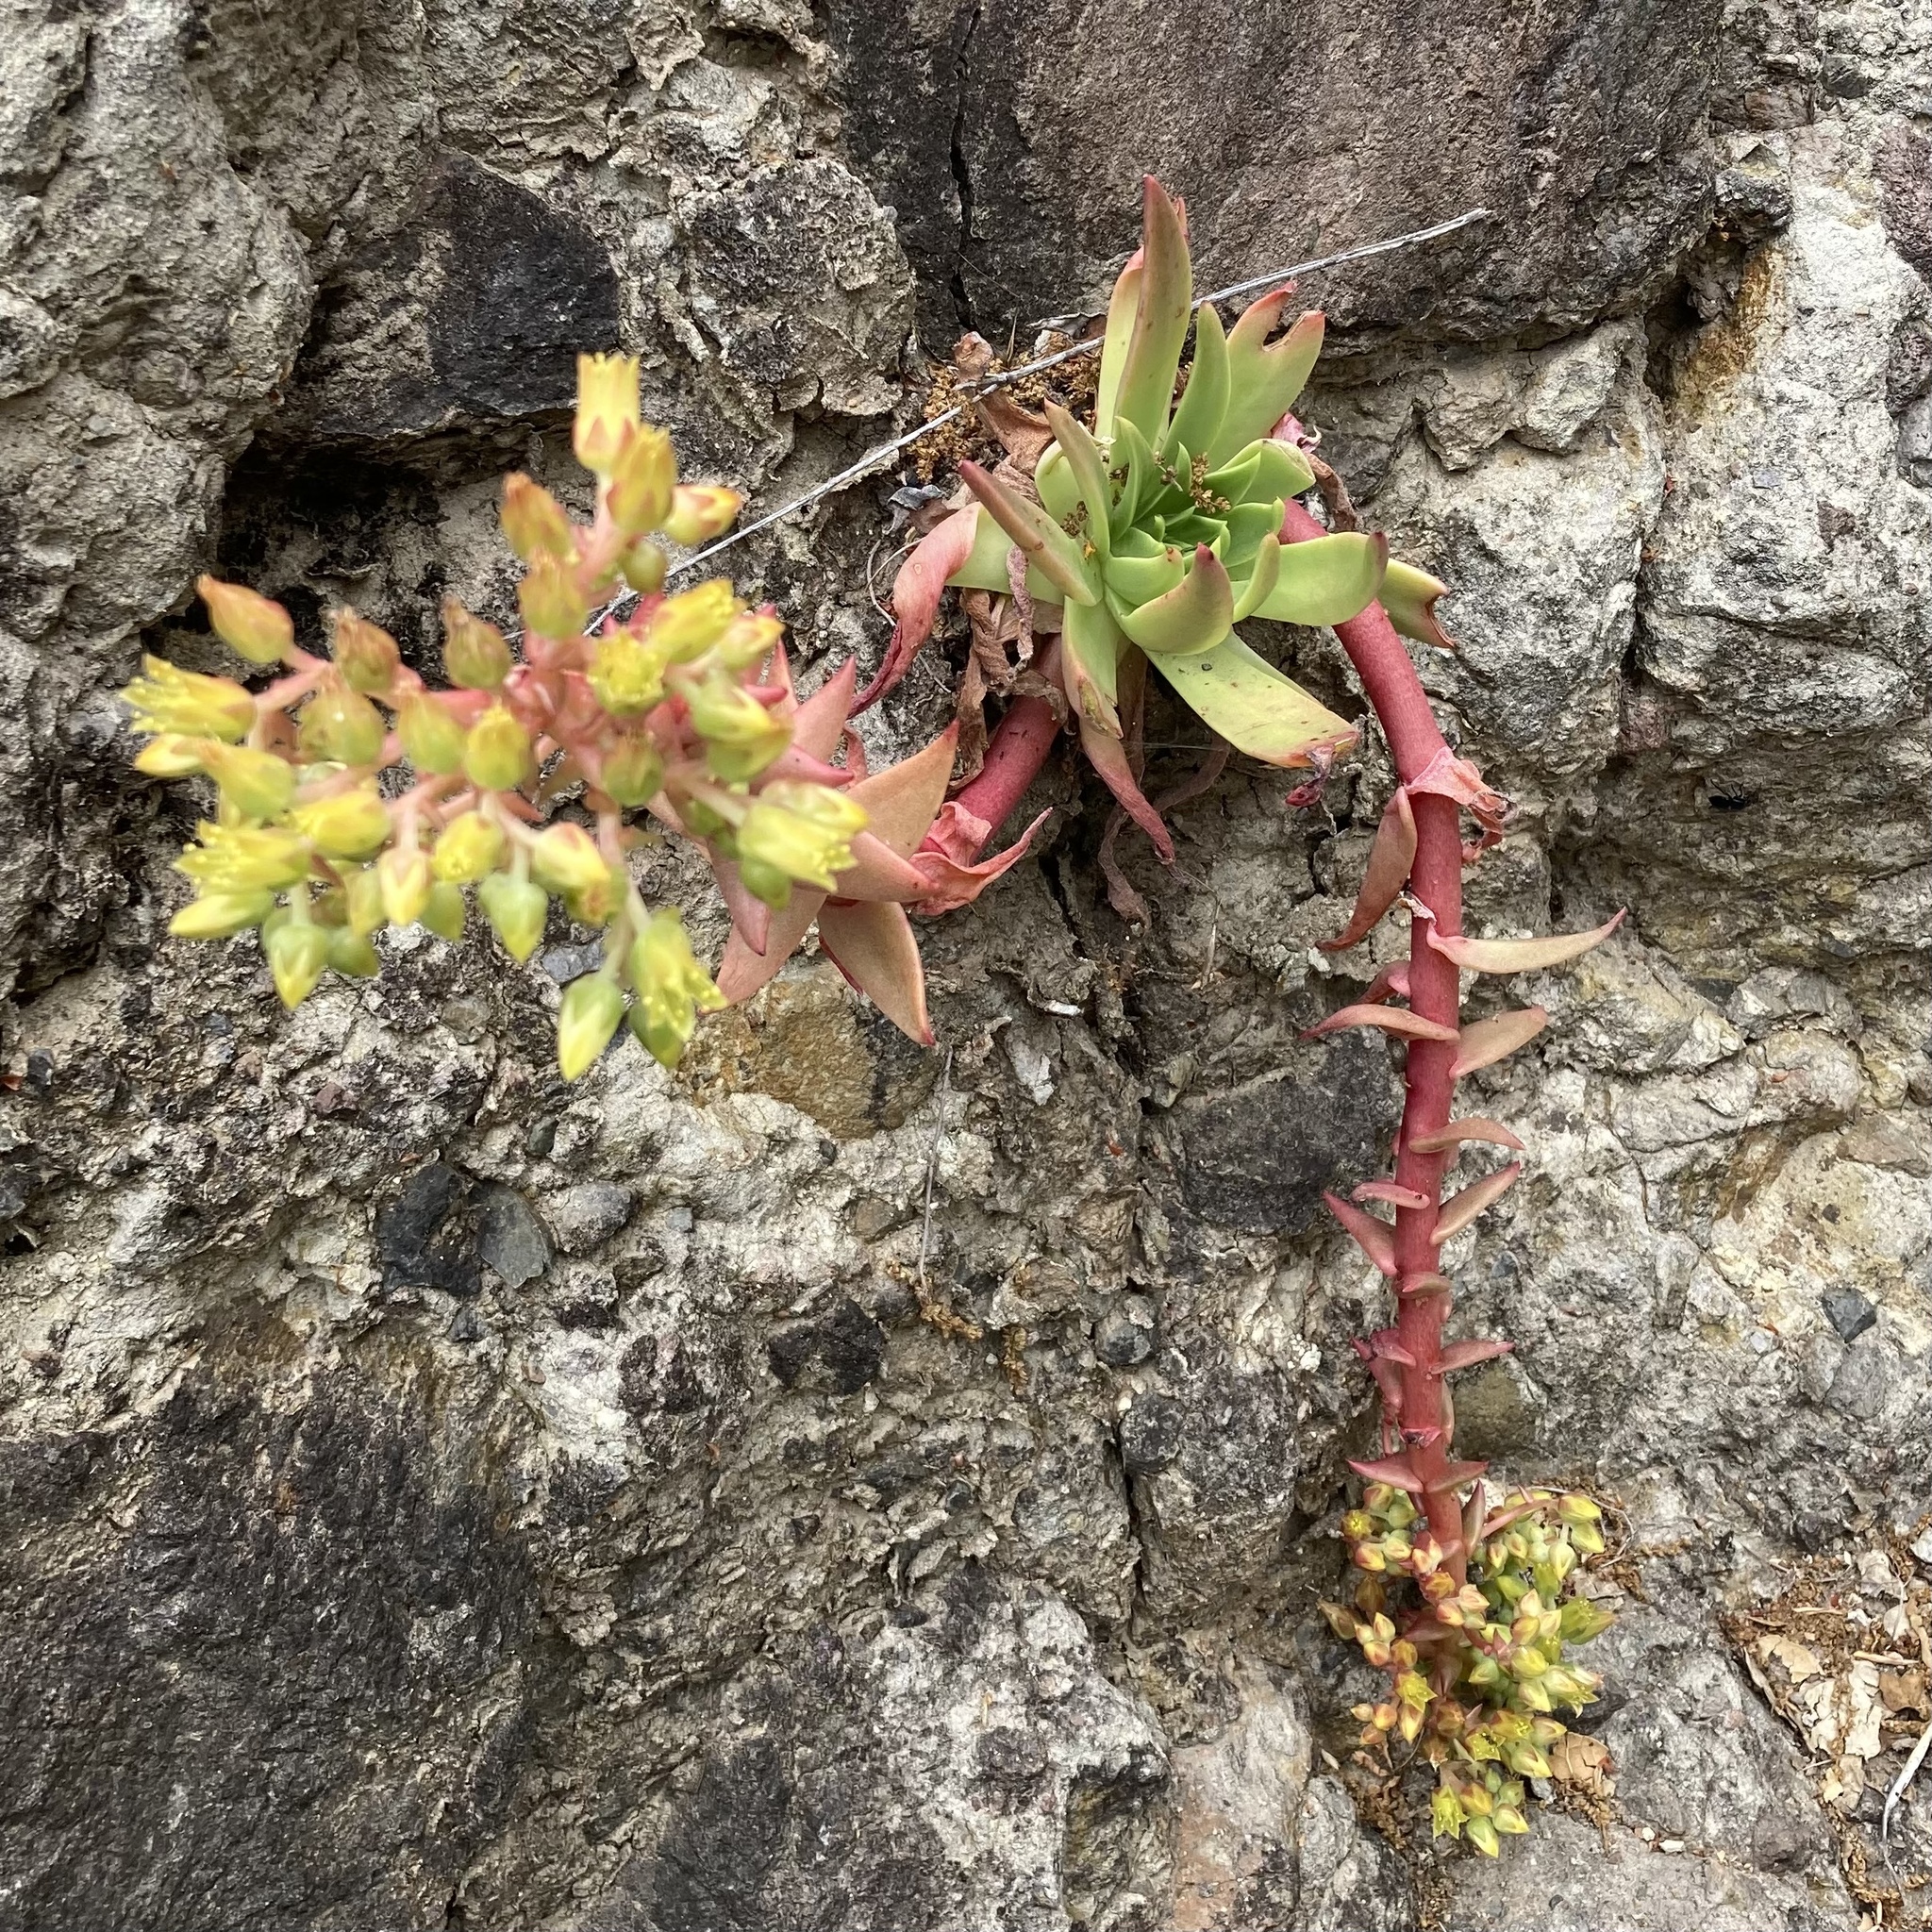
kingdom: Plantae
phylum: Tracheophyta
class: Magnoliopsida
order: Saxifragales
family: Crassulaceae
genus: Dudleya
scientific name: Dudleya candelabrum
